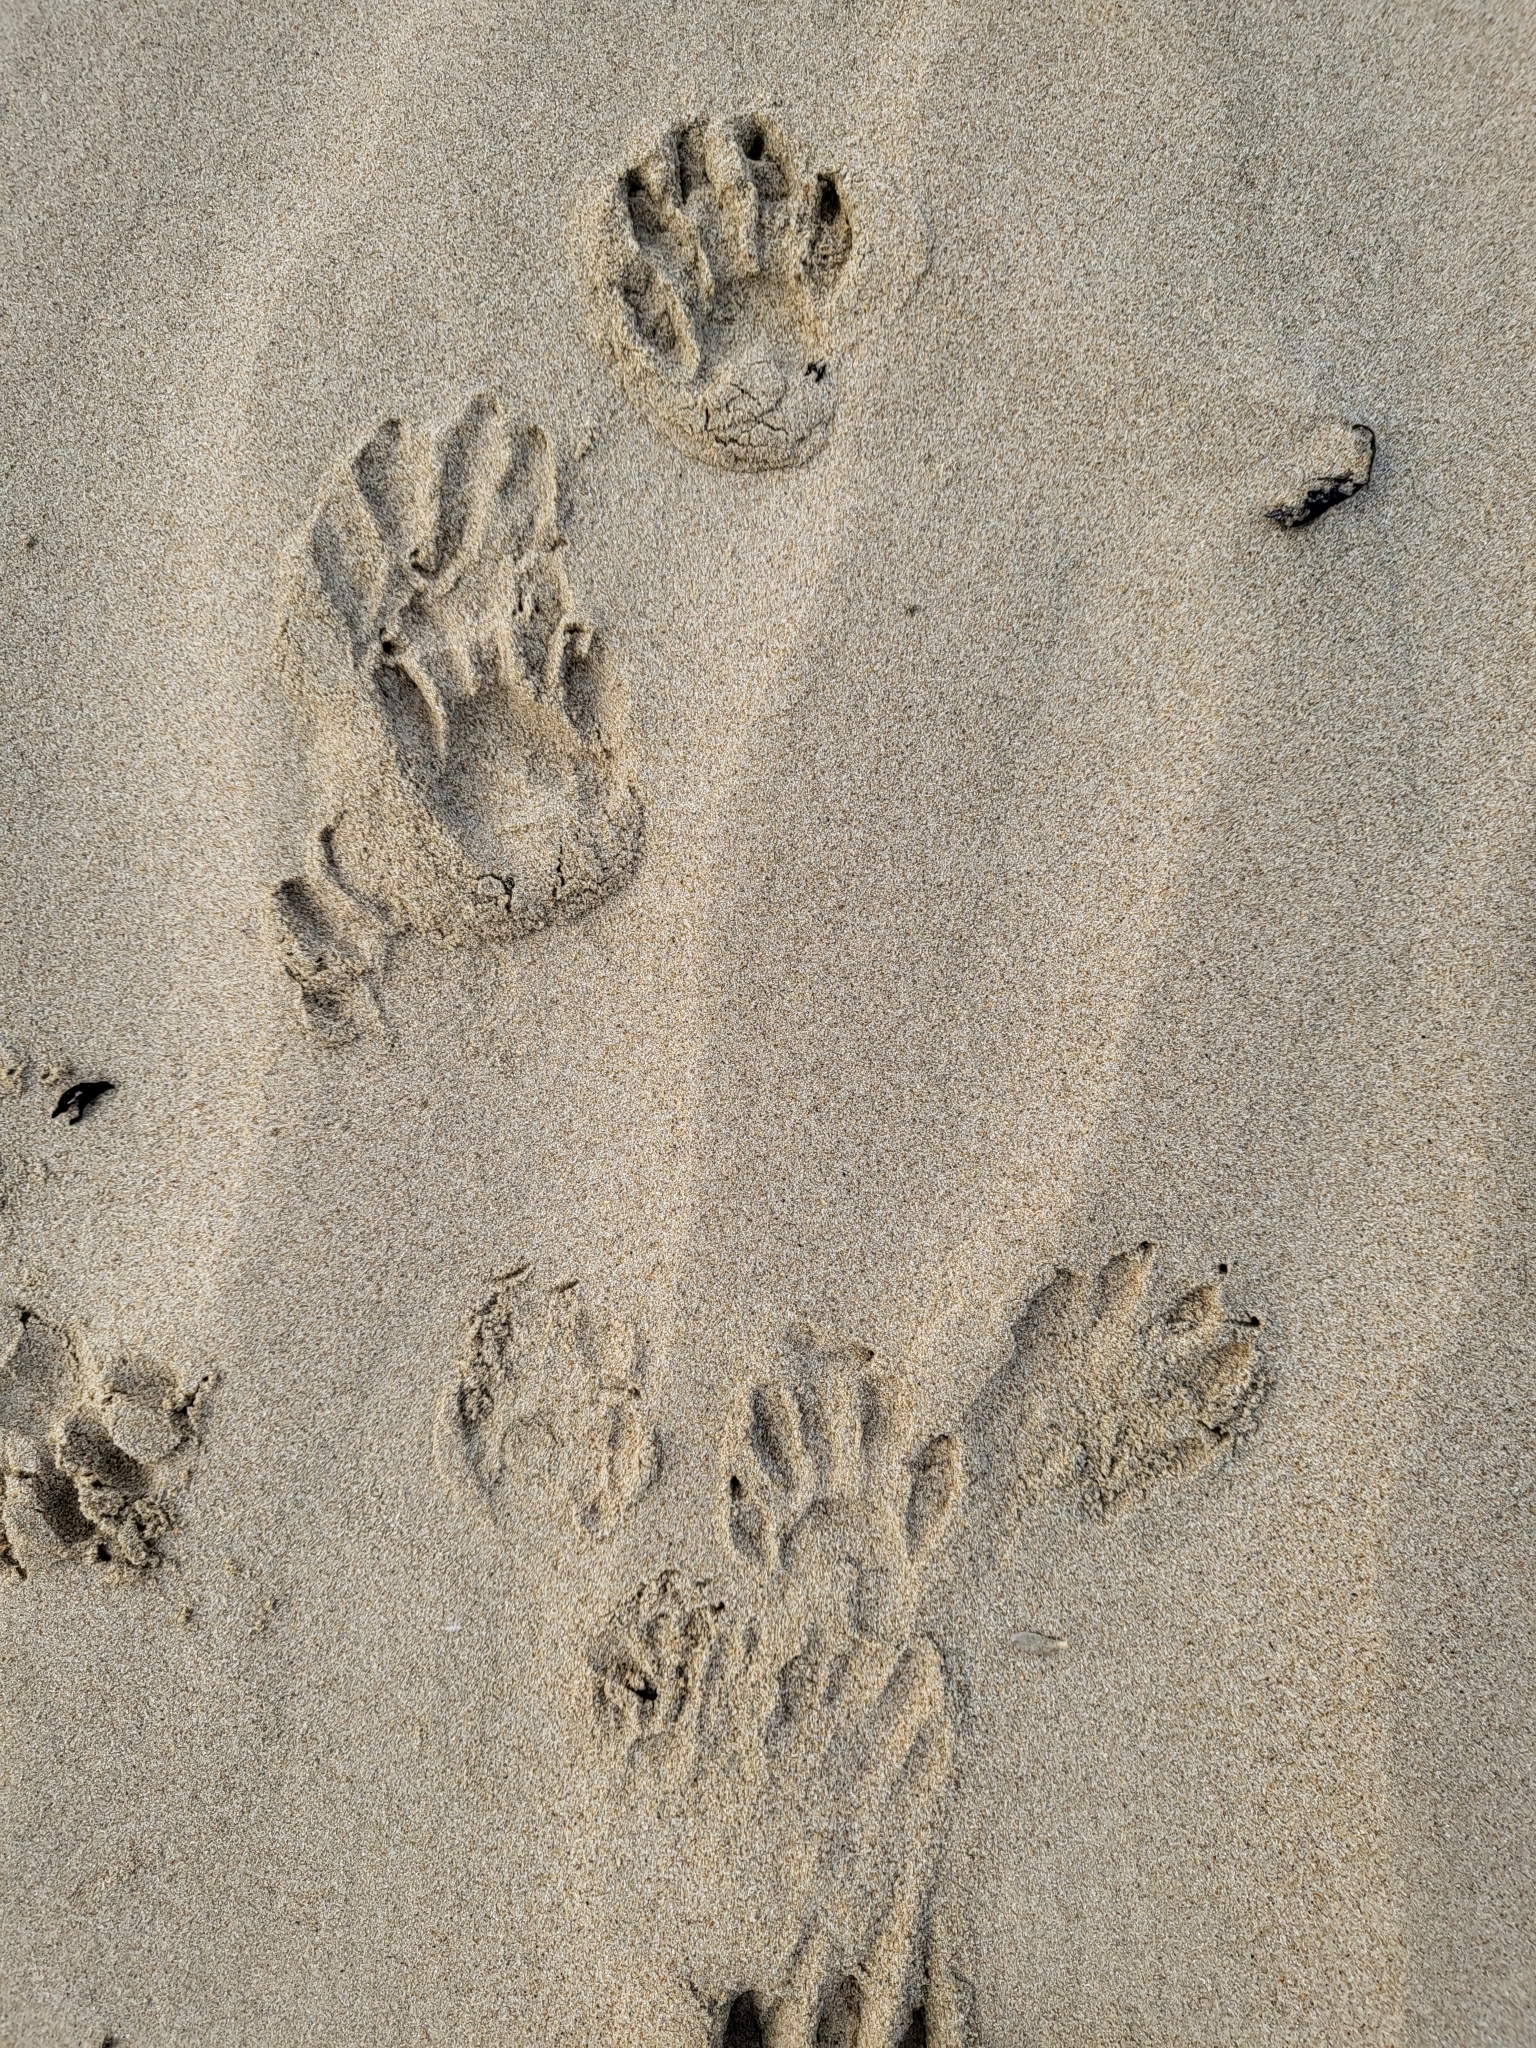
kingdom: Animalia
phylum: Chordata
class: Mammalia
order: Carnivora
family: Procyonidae
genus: Procyon
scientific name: Procyon lotor
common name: Raccoon
